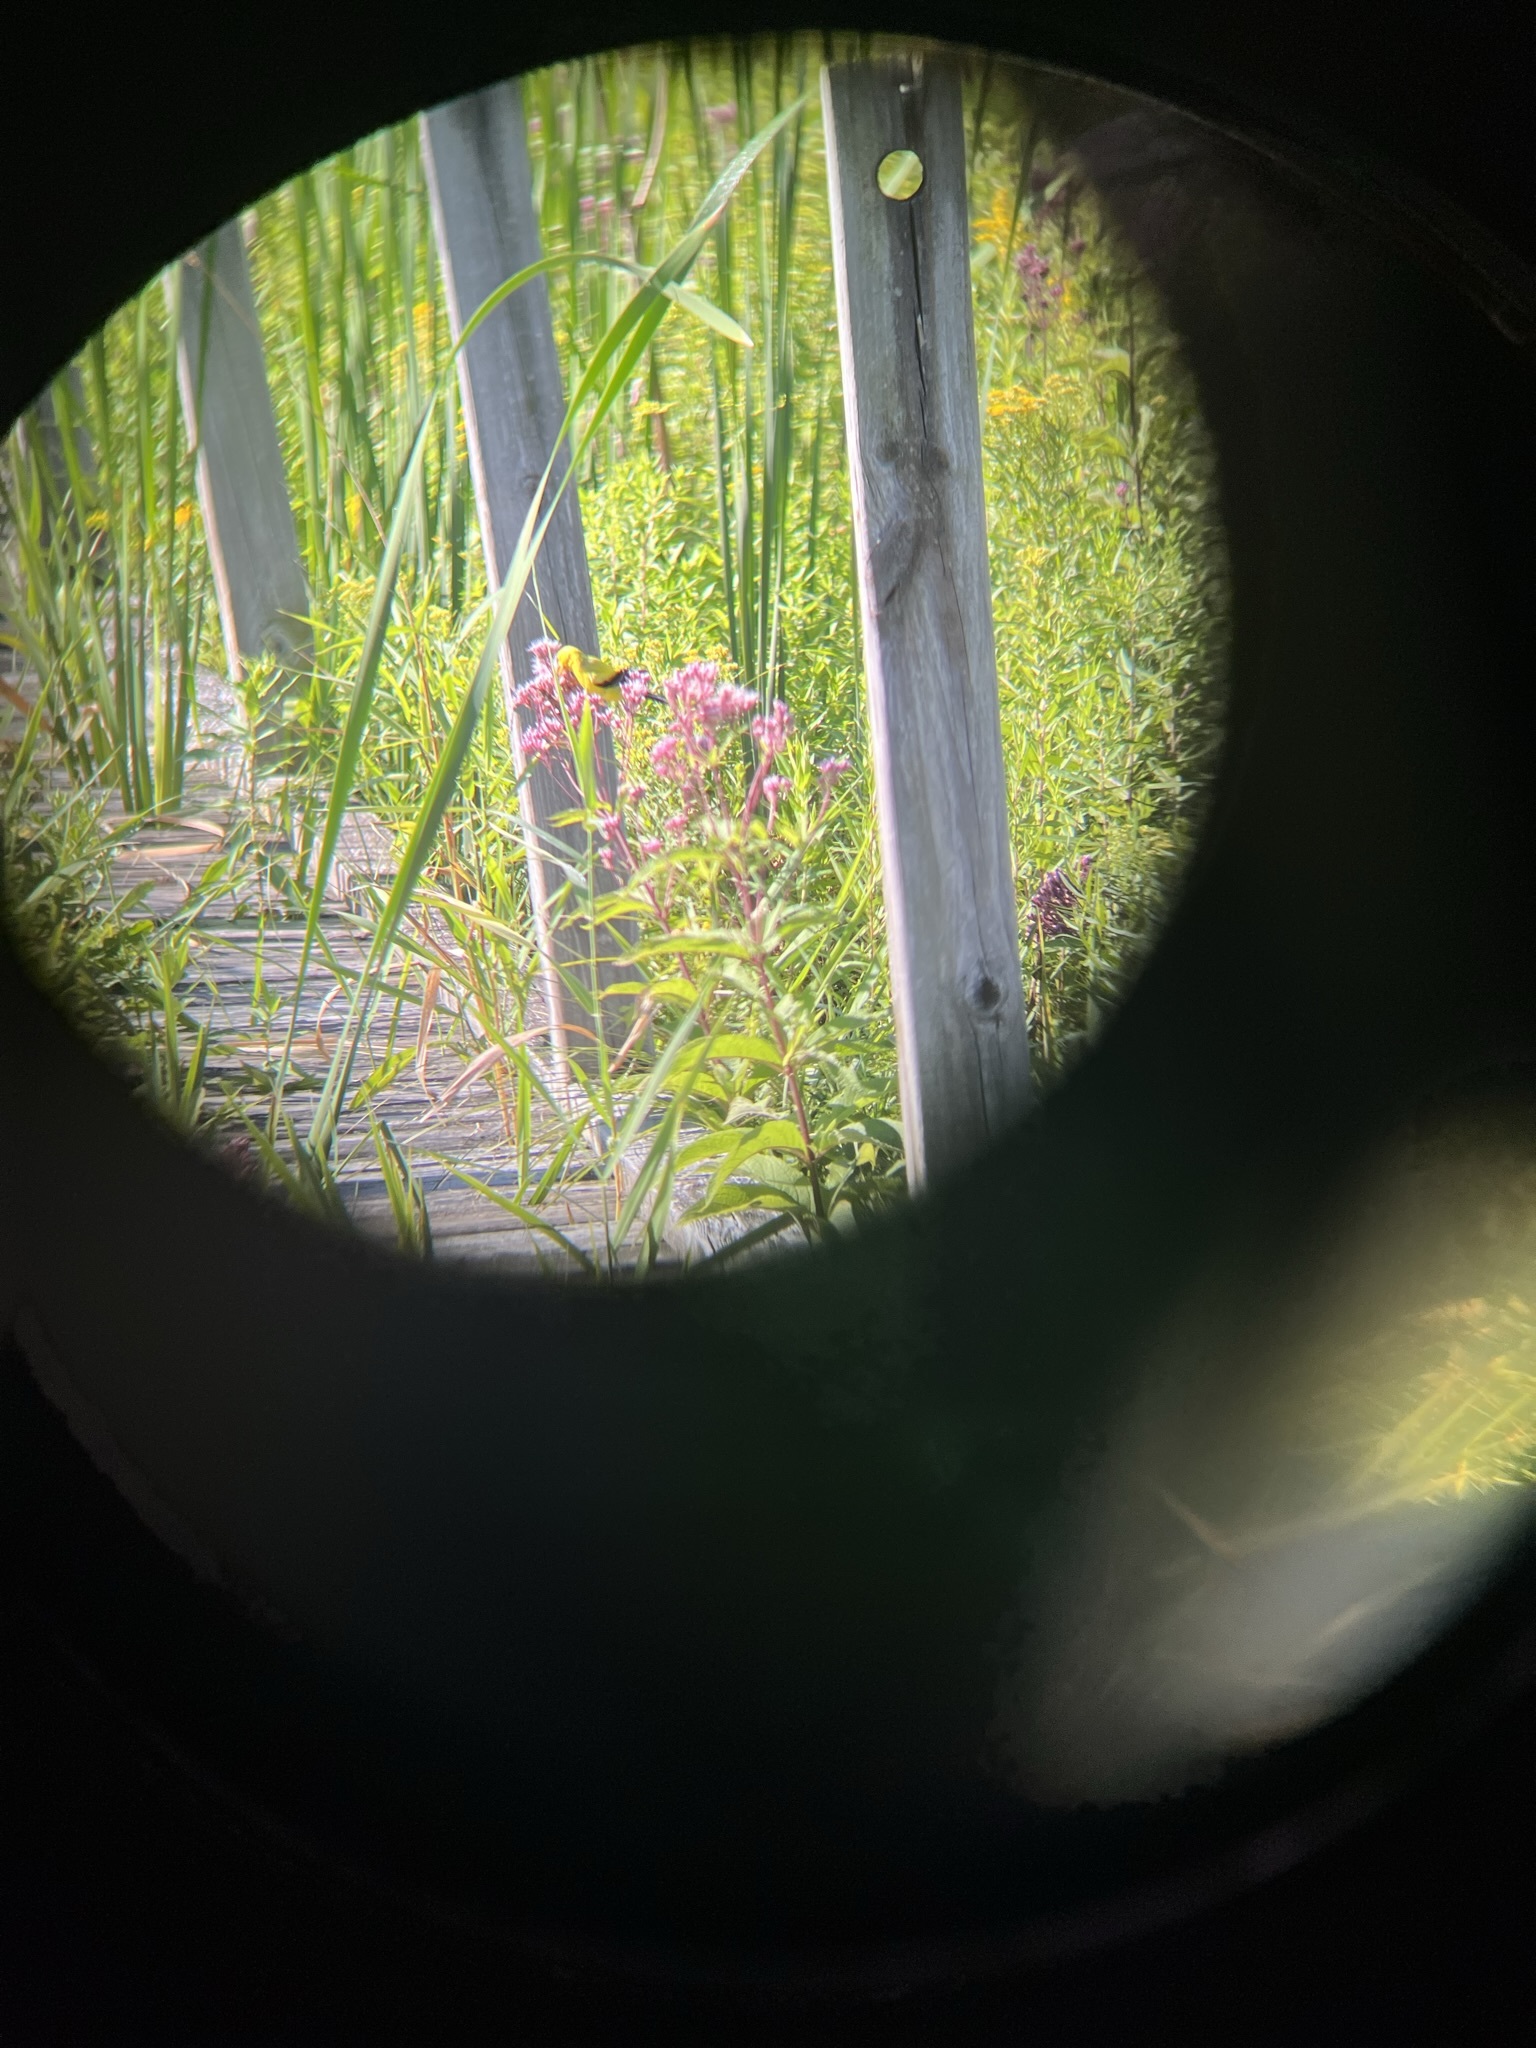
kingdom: Animalia
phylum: Chordata
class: Aves
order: Passeriformes
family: Fringillidae
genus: Spinus
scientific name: Spinus tristis
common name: American goldfinch
